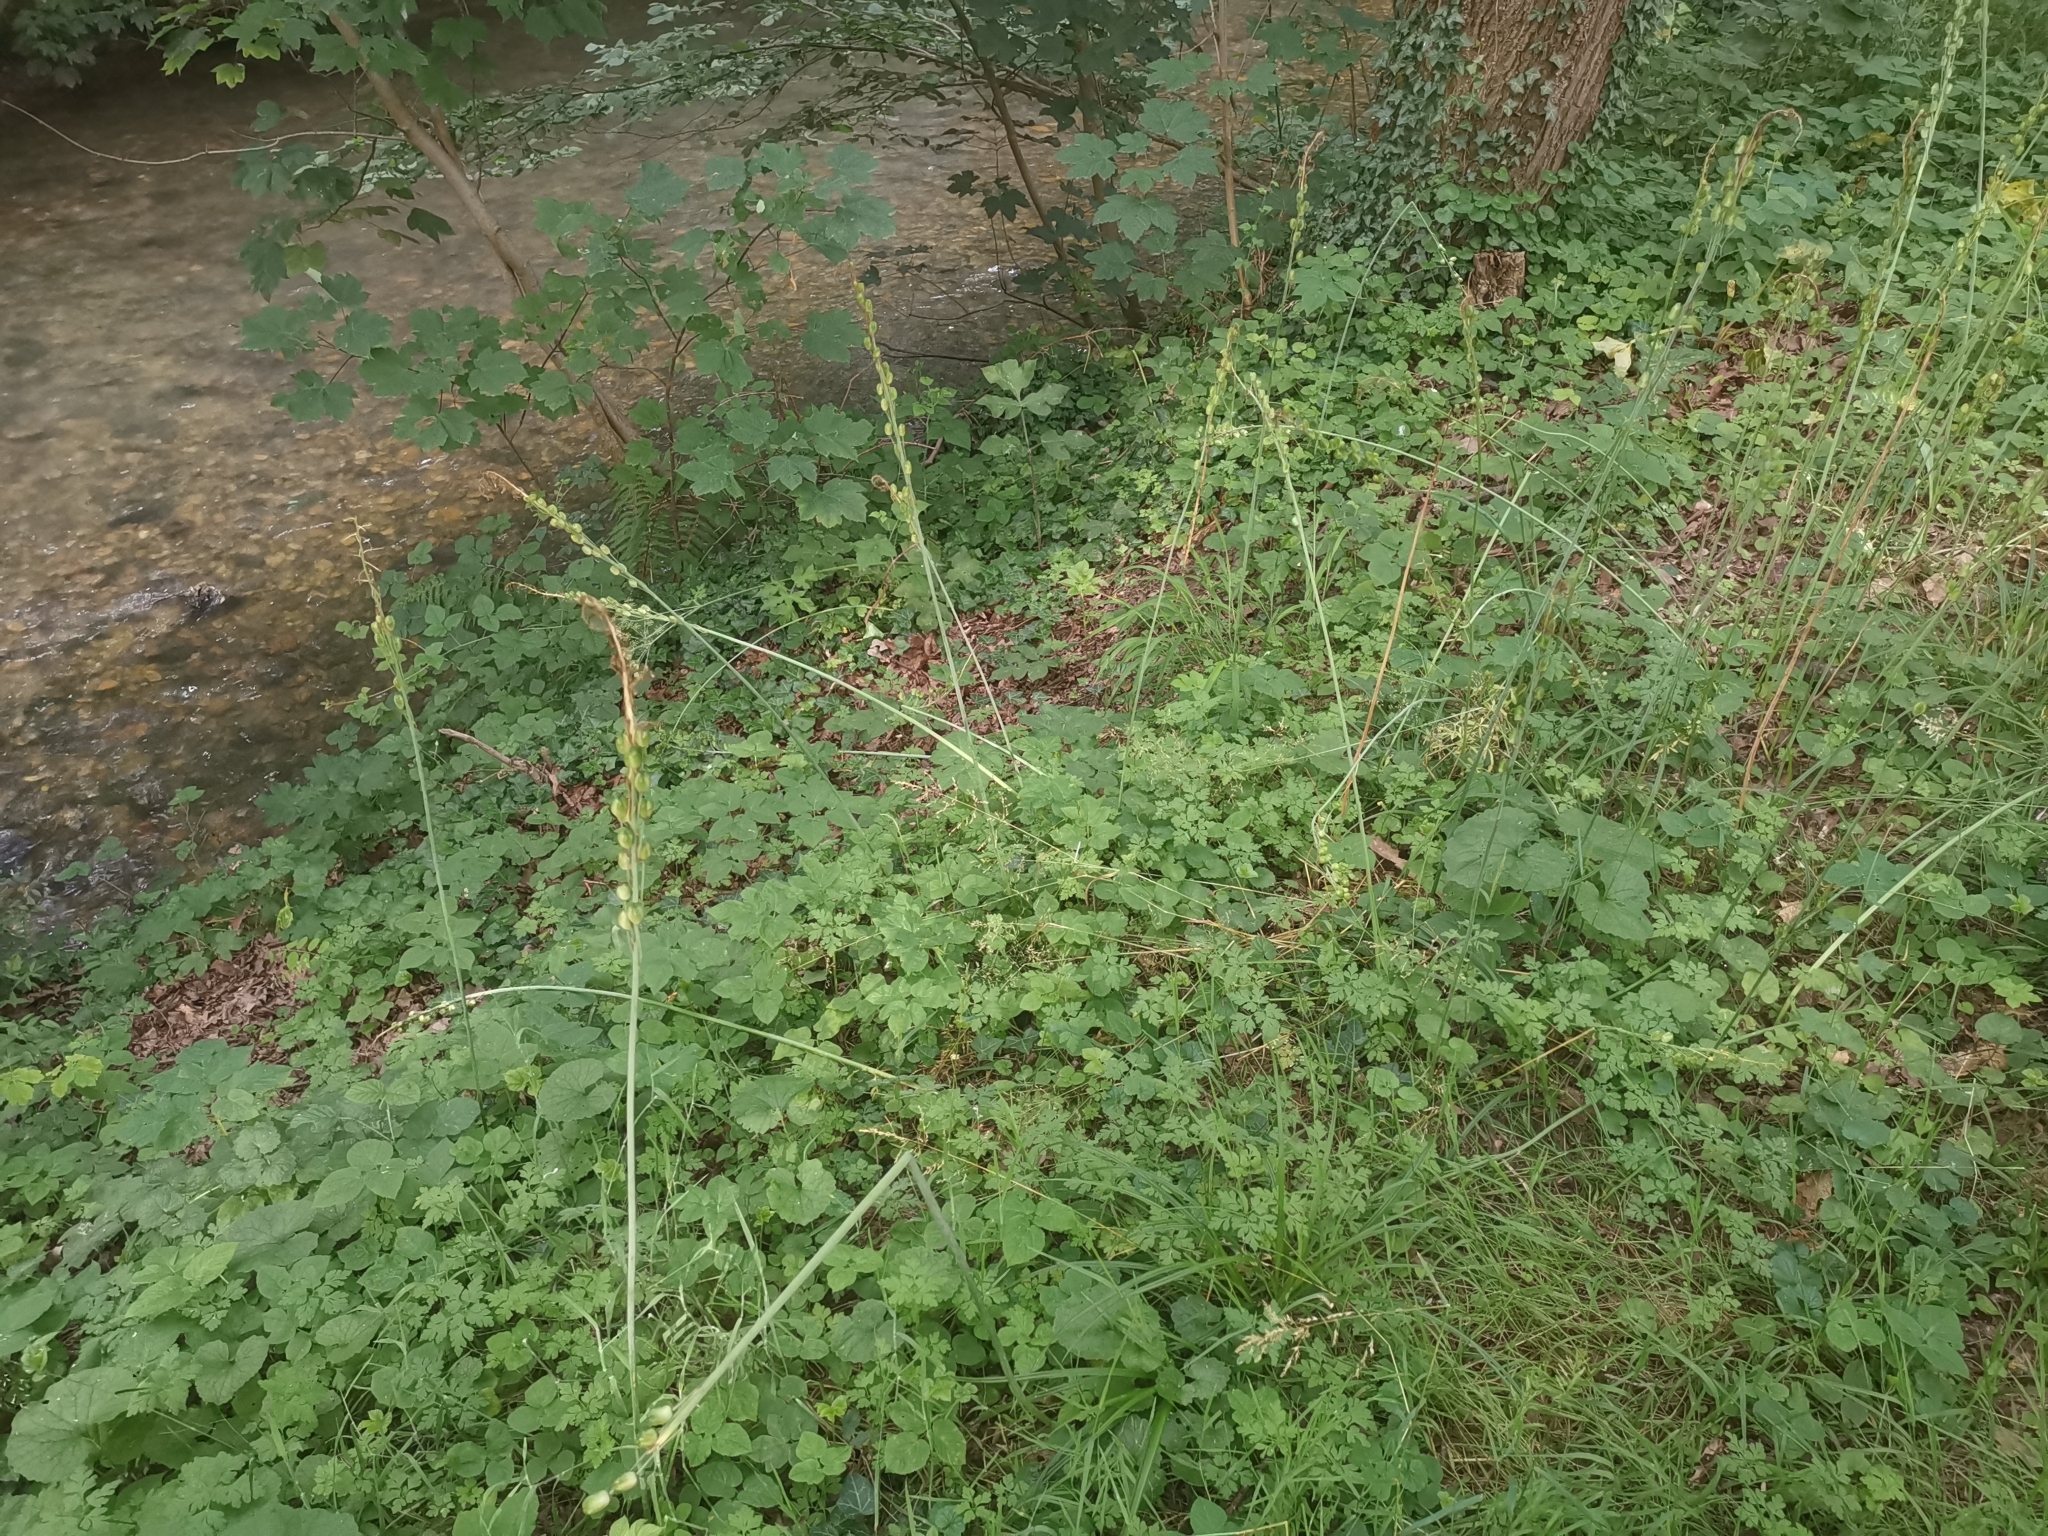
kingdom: Plantae
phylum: Tracheophyta
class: Liliopsida
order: Asparagales
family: Asparagaceae
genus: Ornithogalum
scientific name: Ornithogalum pyrenaicum
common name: Spiked star-of-bethlehem
